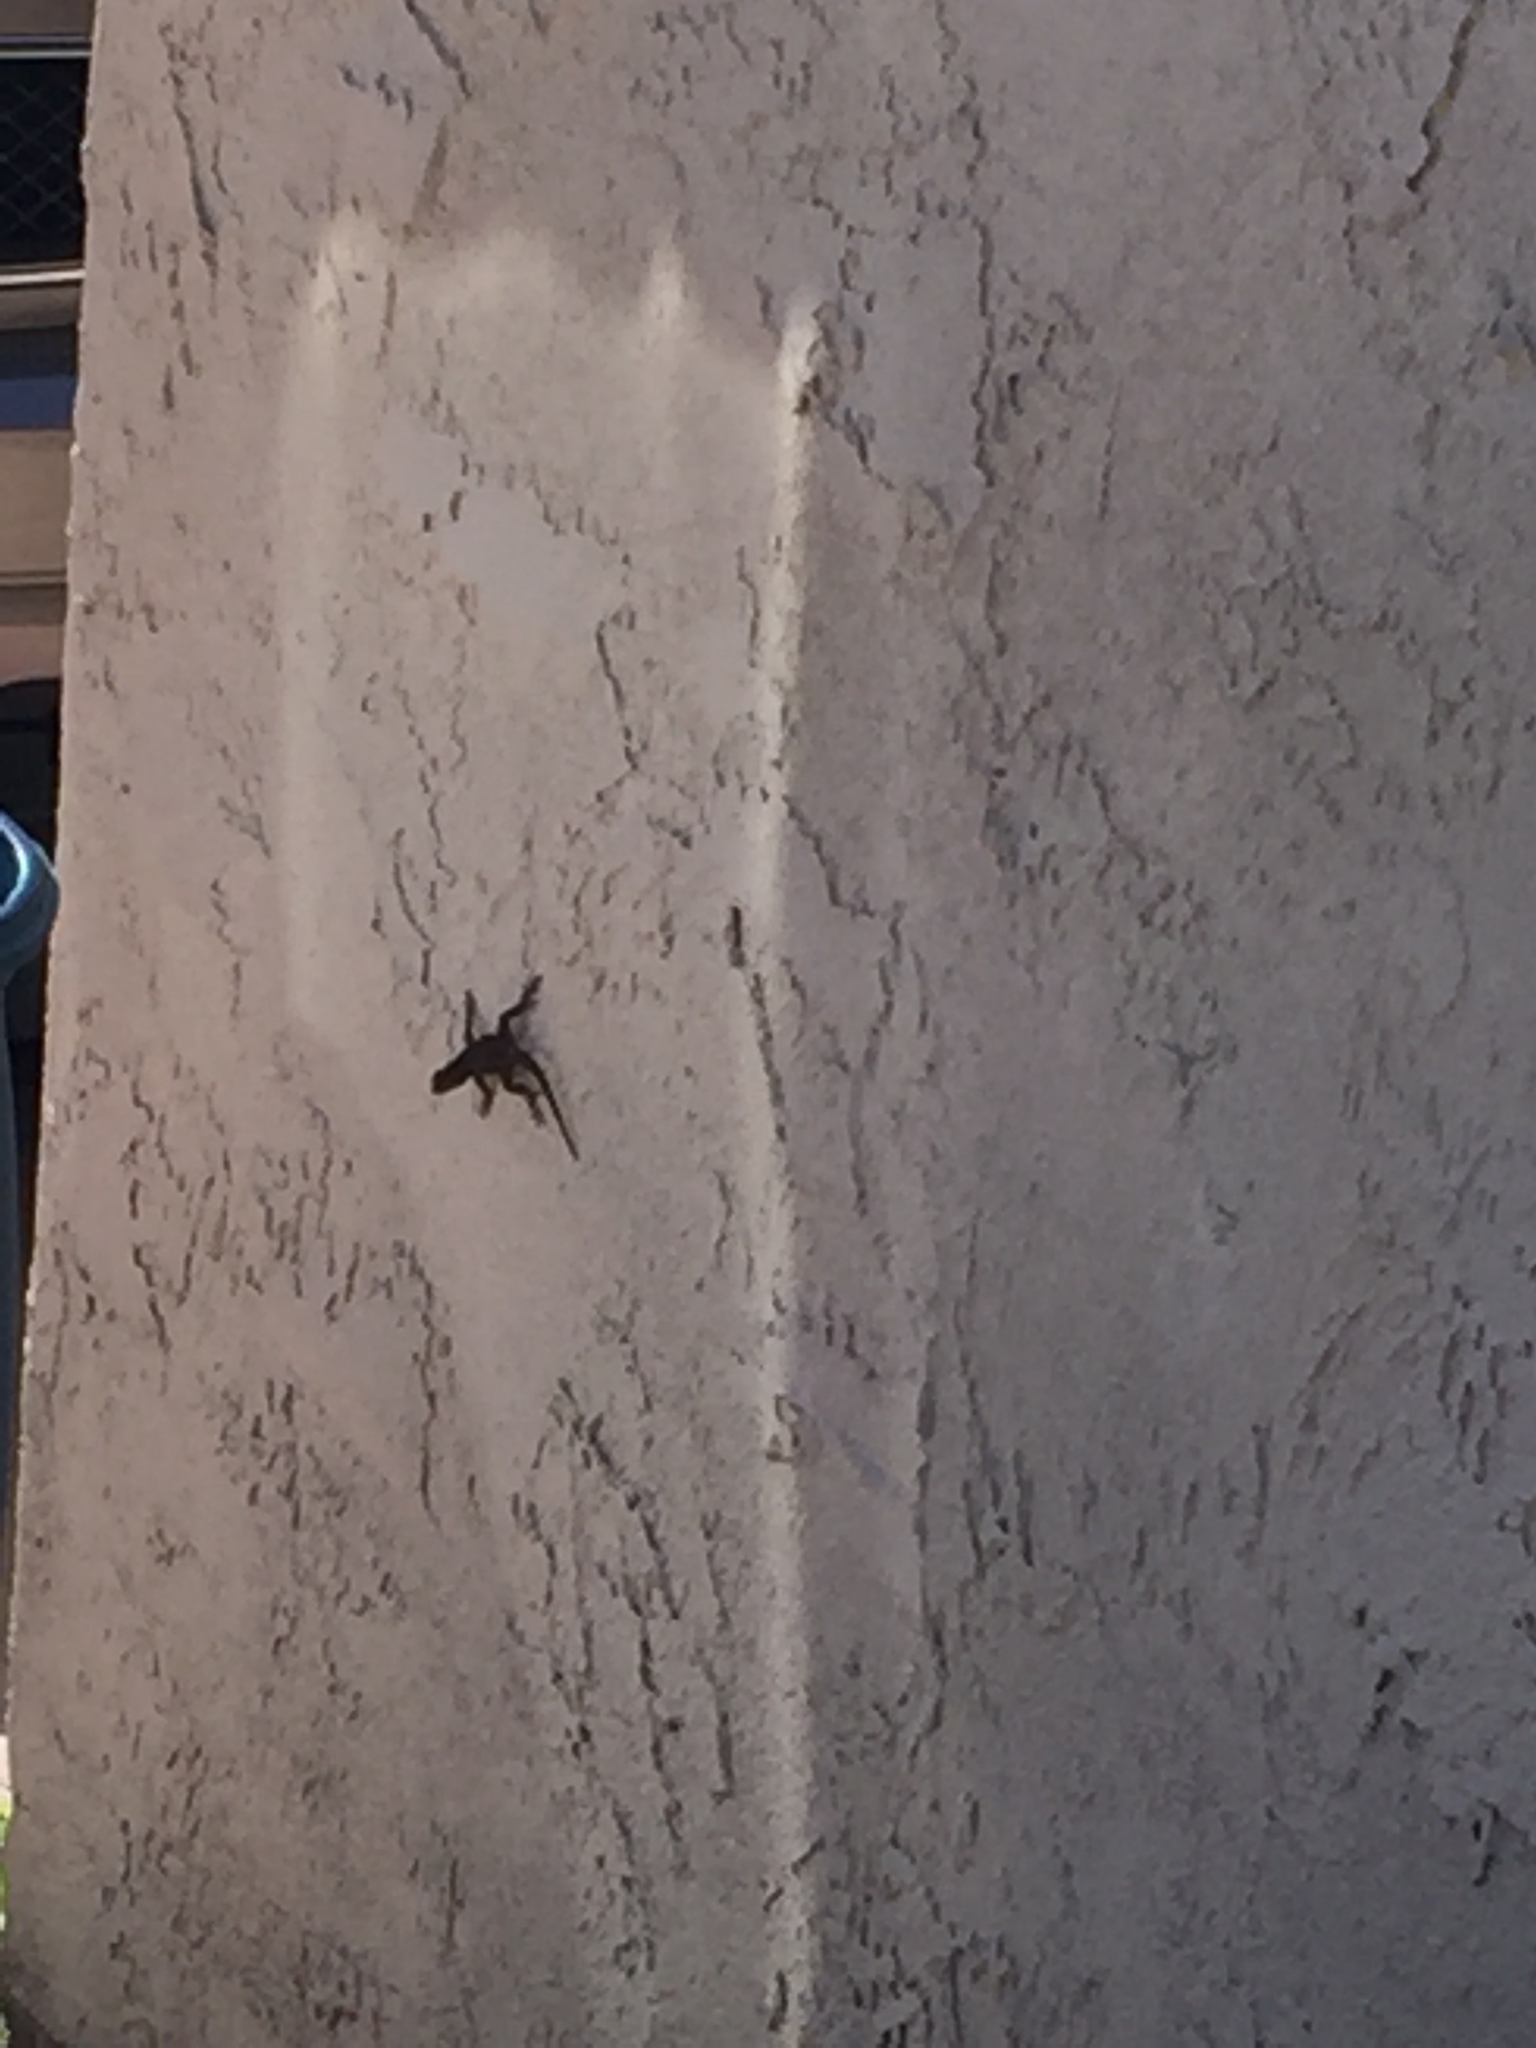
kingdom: Animalia
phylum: Chordata
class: Squamata
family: Phrynosomatidae
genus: Sceloporus
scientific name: Sceloporus occidentalis
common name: Western fence lizard
